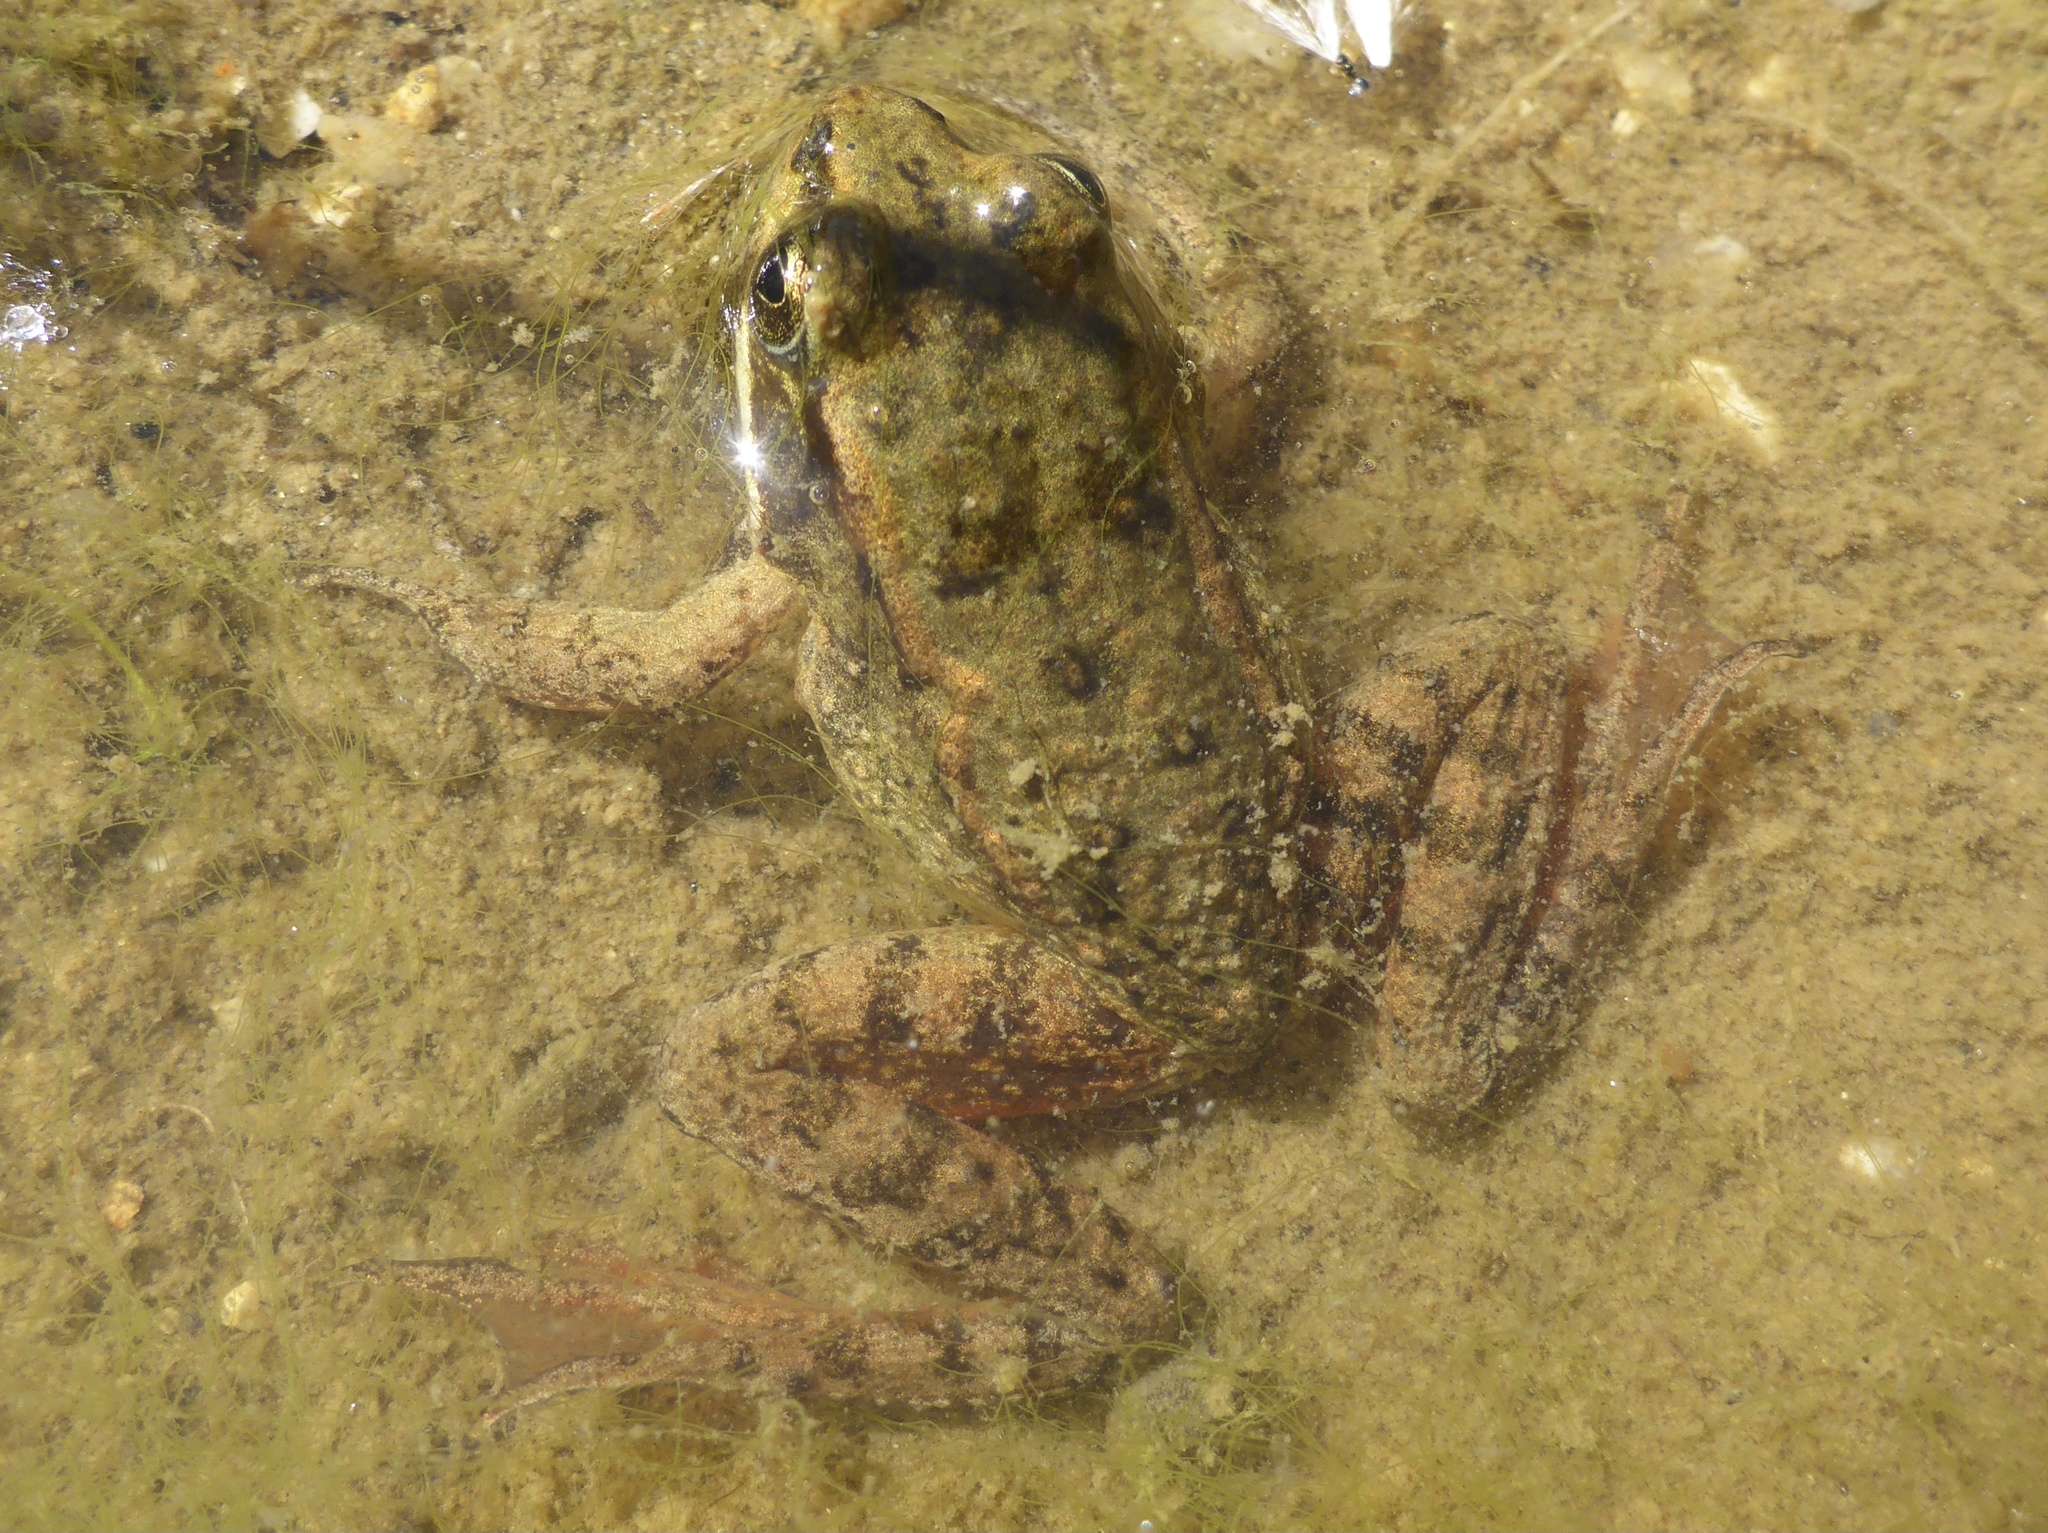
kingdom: Animalia
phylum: Chordata
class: Amphibia
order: Anura
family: Ranidae
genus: Rana
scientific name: Rana draytonii
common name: California red-legged frog
